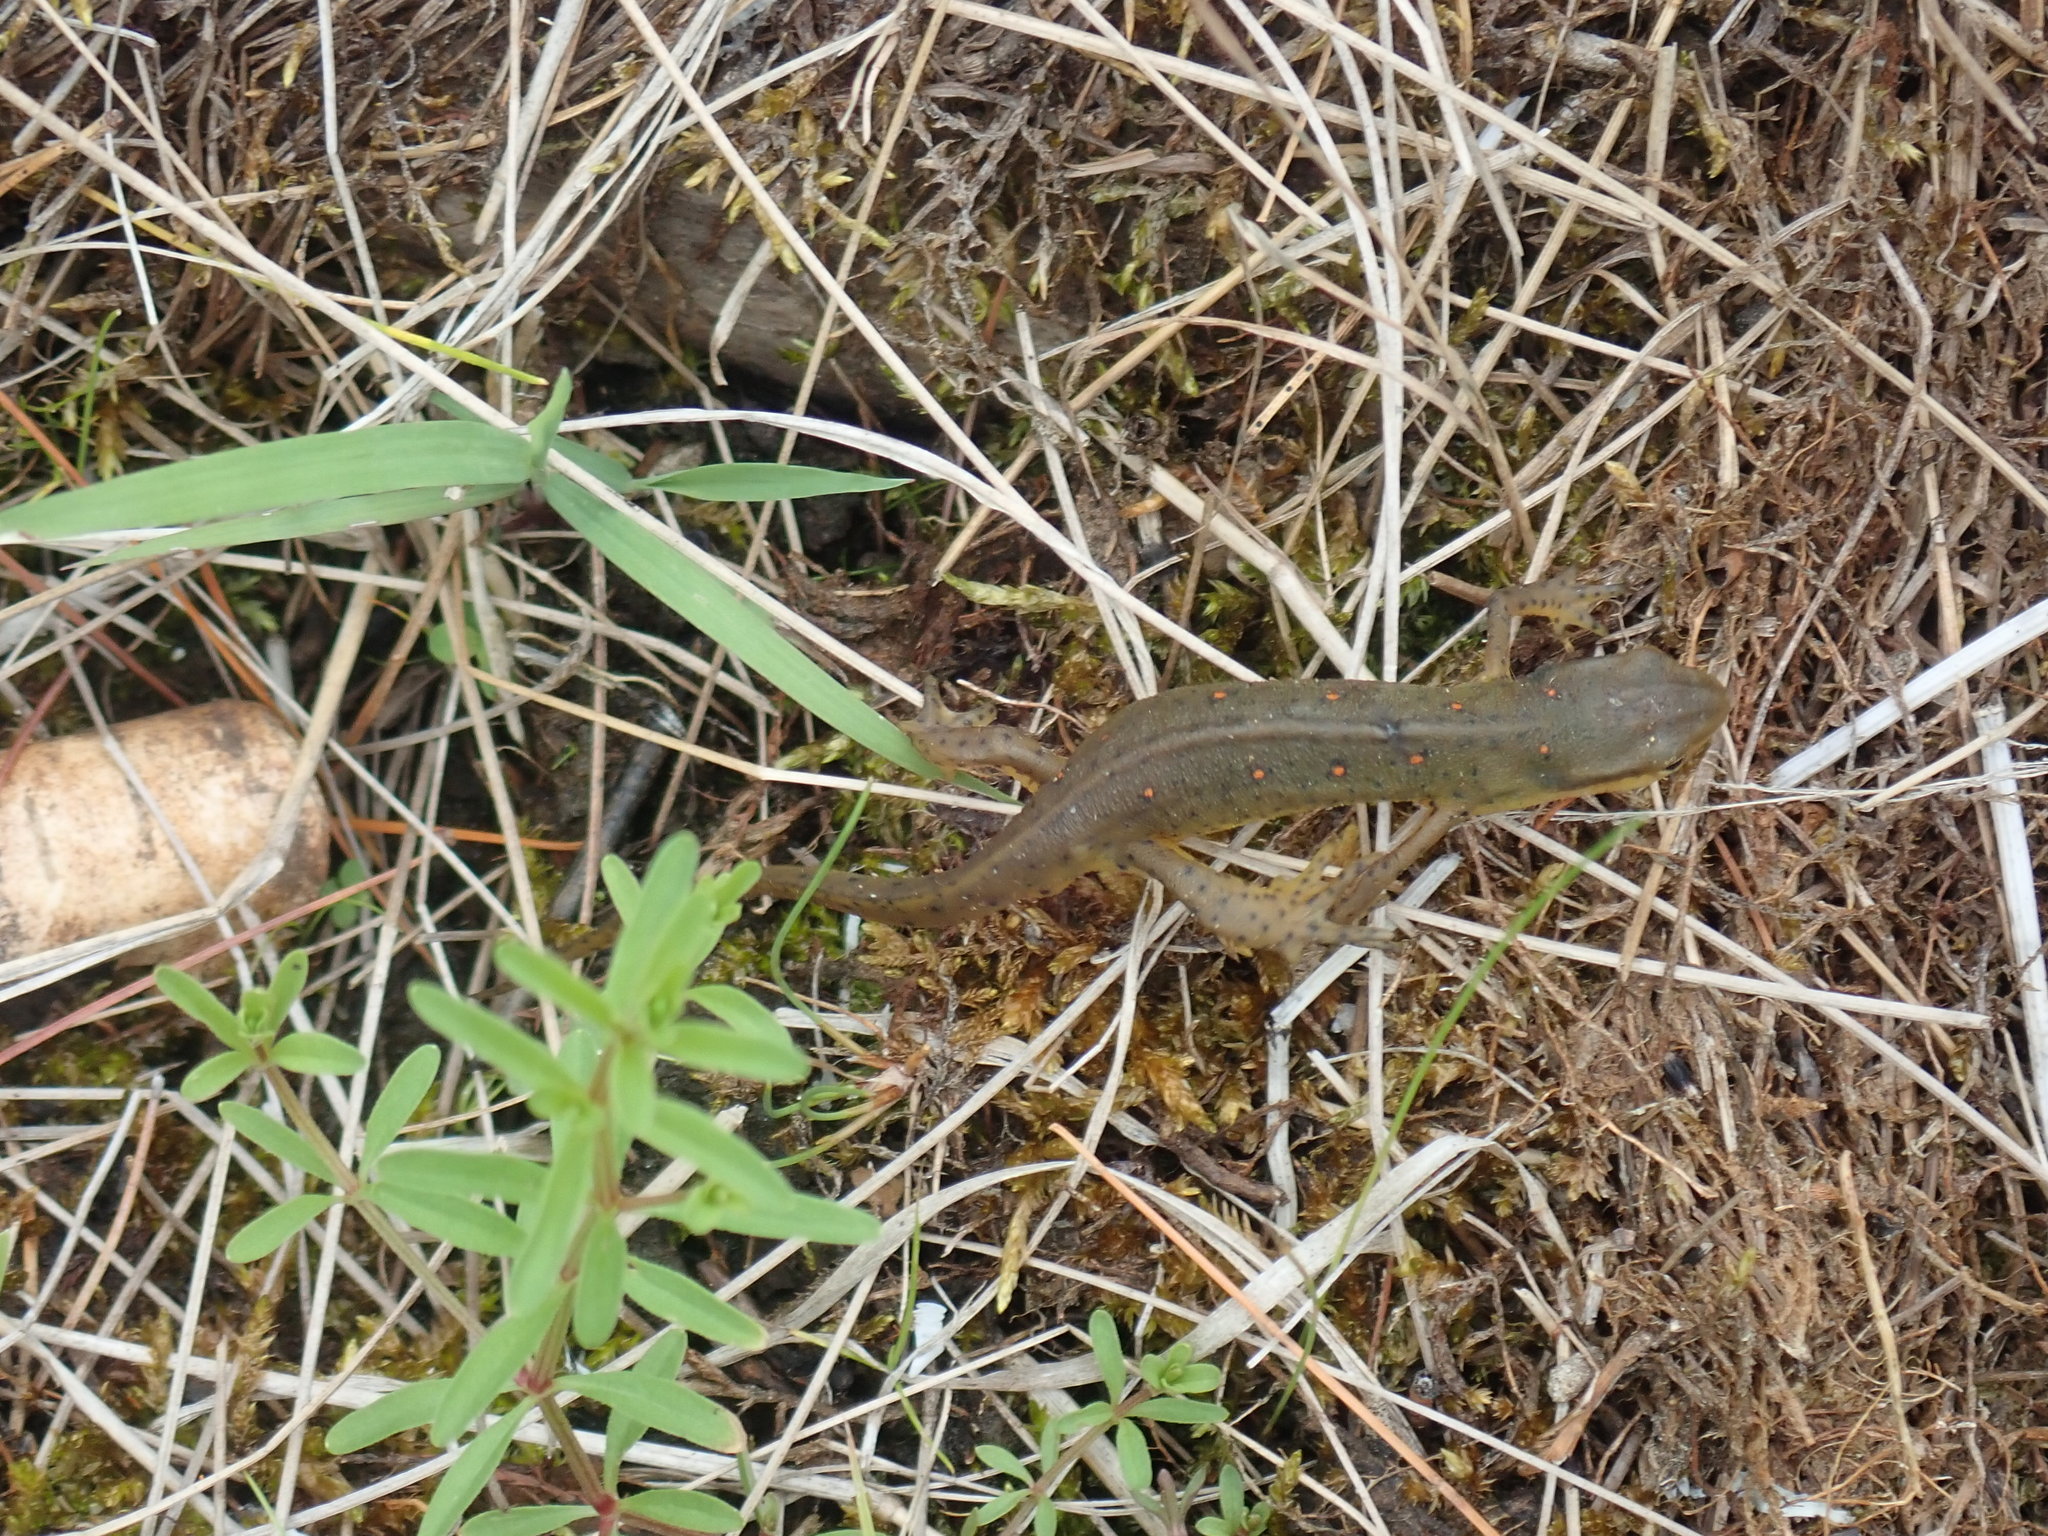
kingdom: Animalia
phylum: Chordata
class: Amphibia
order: Caudata
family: Salamandridae
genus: Notophthalmus
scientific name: Notophthalmus viridescens
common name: Eastern newt
